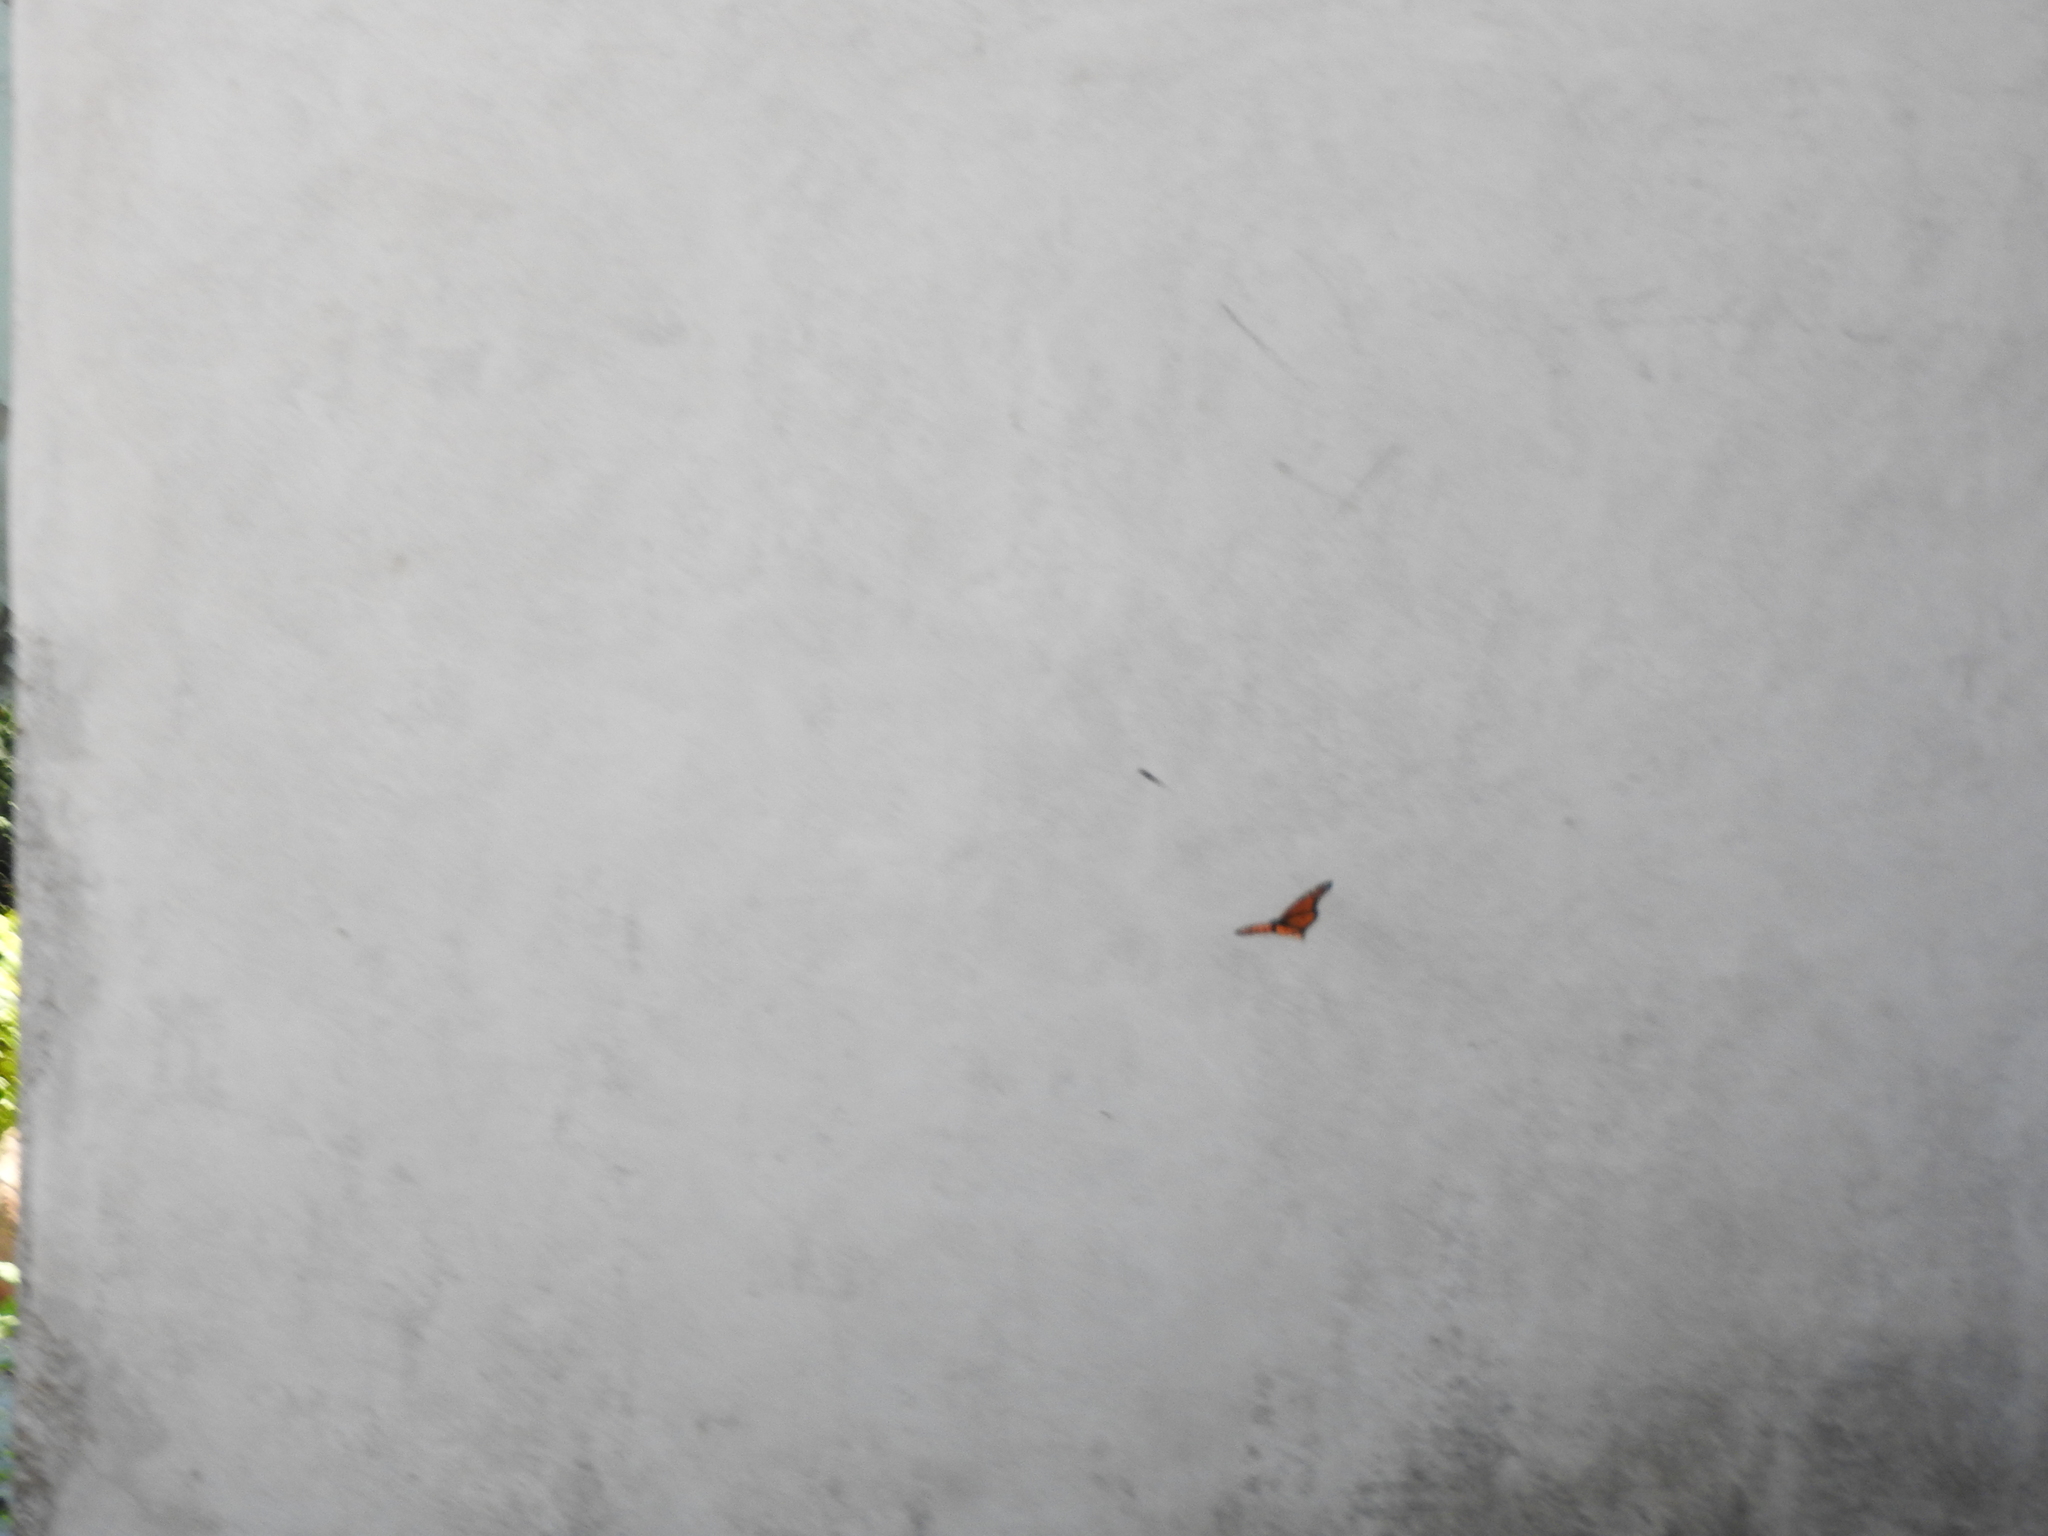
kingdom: Animalia
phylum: Arthropoda
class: Insecta
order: Lepidoptera
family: Nymphalidae
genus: Danaus
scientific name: Danaus plexippus
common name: Monarch
